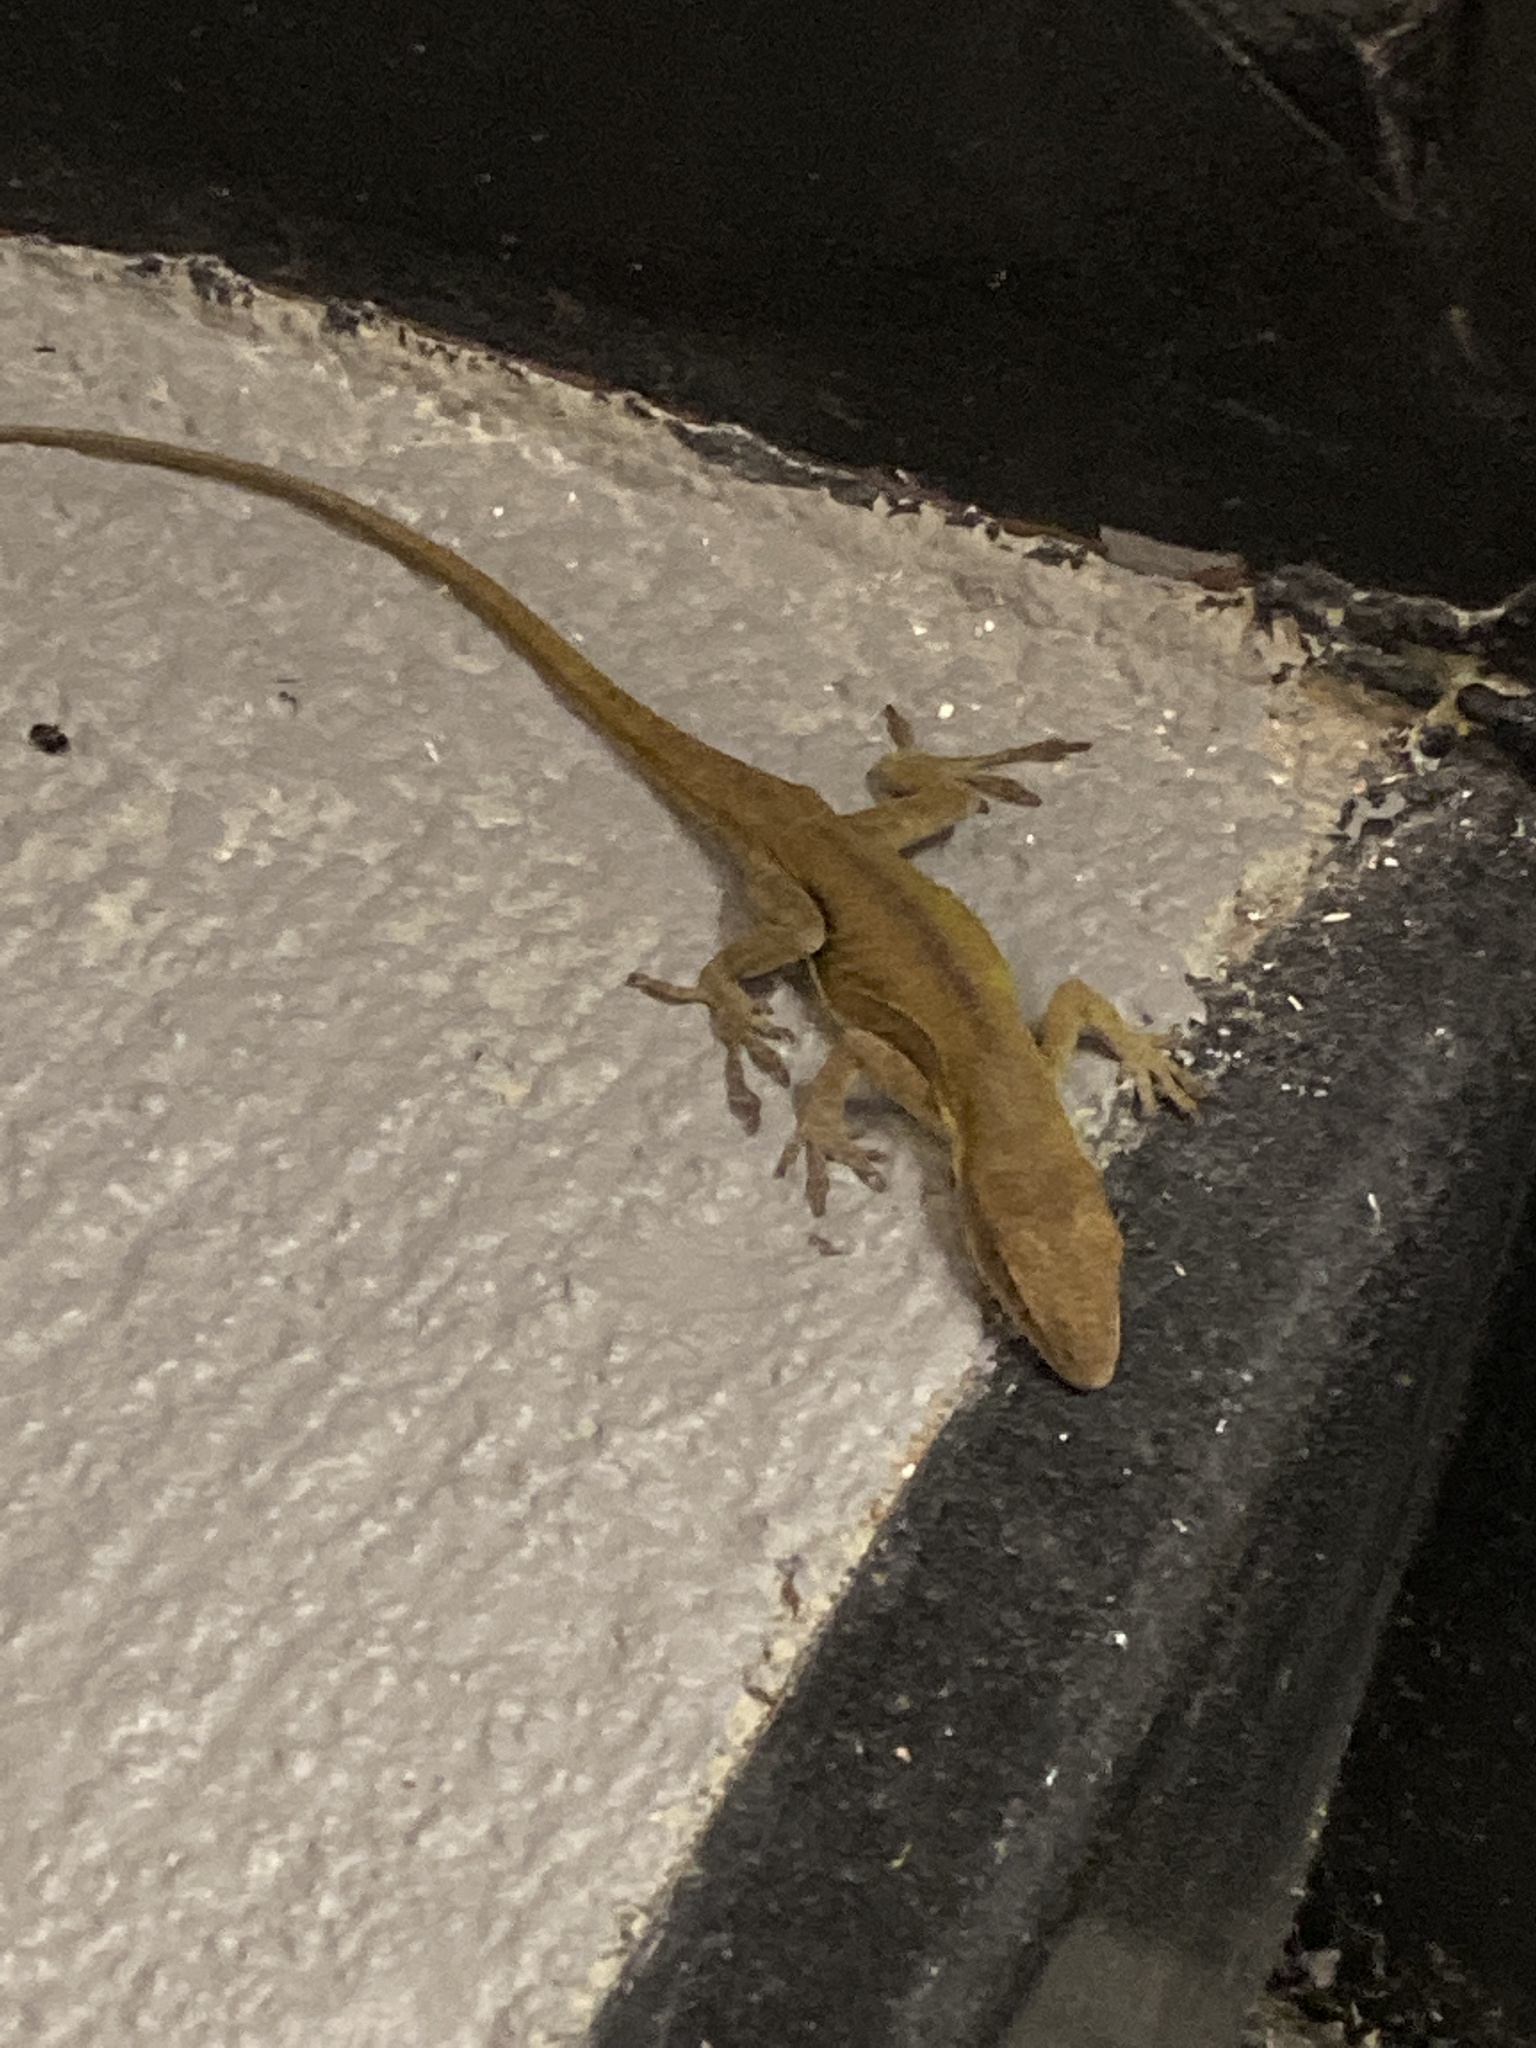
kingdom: Animalia
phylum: Chordata
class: Squamata
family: Dactyloidae
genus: Anolis
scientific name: Anolis carolinensis
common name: Green anole
